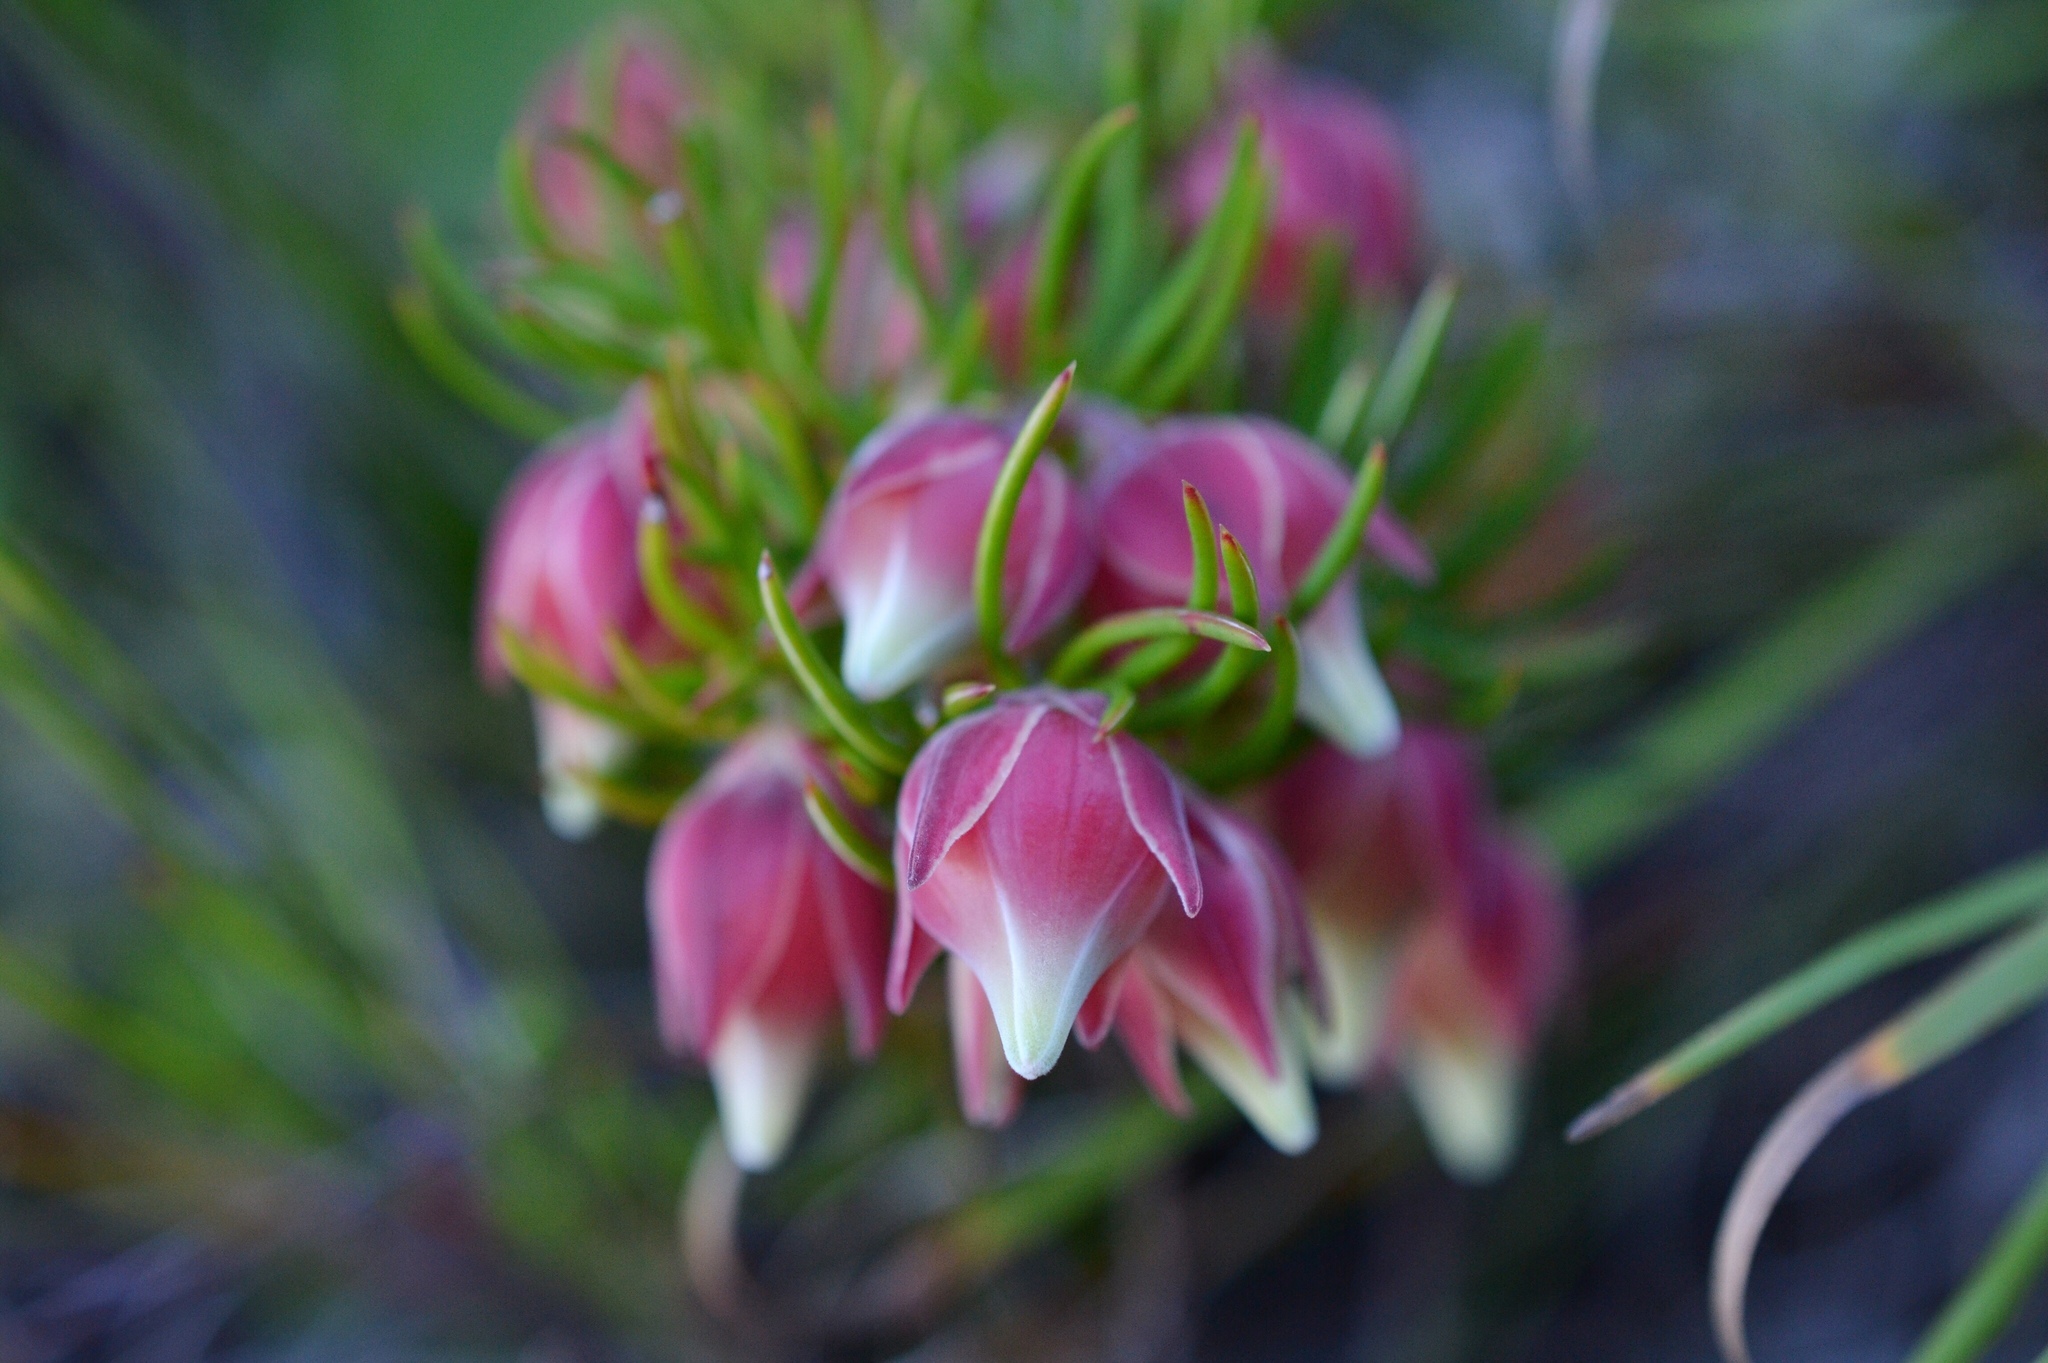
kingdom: Plantae
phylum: Tracheophyta
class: Magnoliopsida
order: Ericales
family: Ericaceae
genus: Erica
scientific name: Erica lanuginosa
